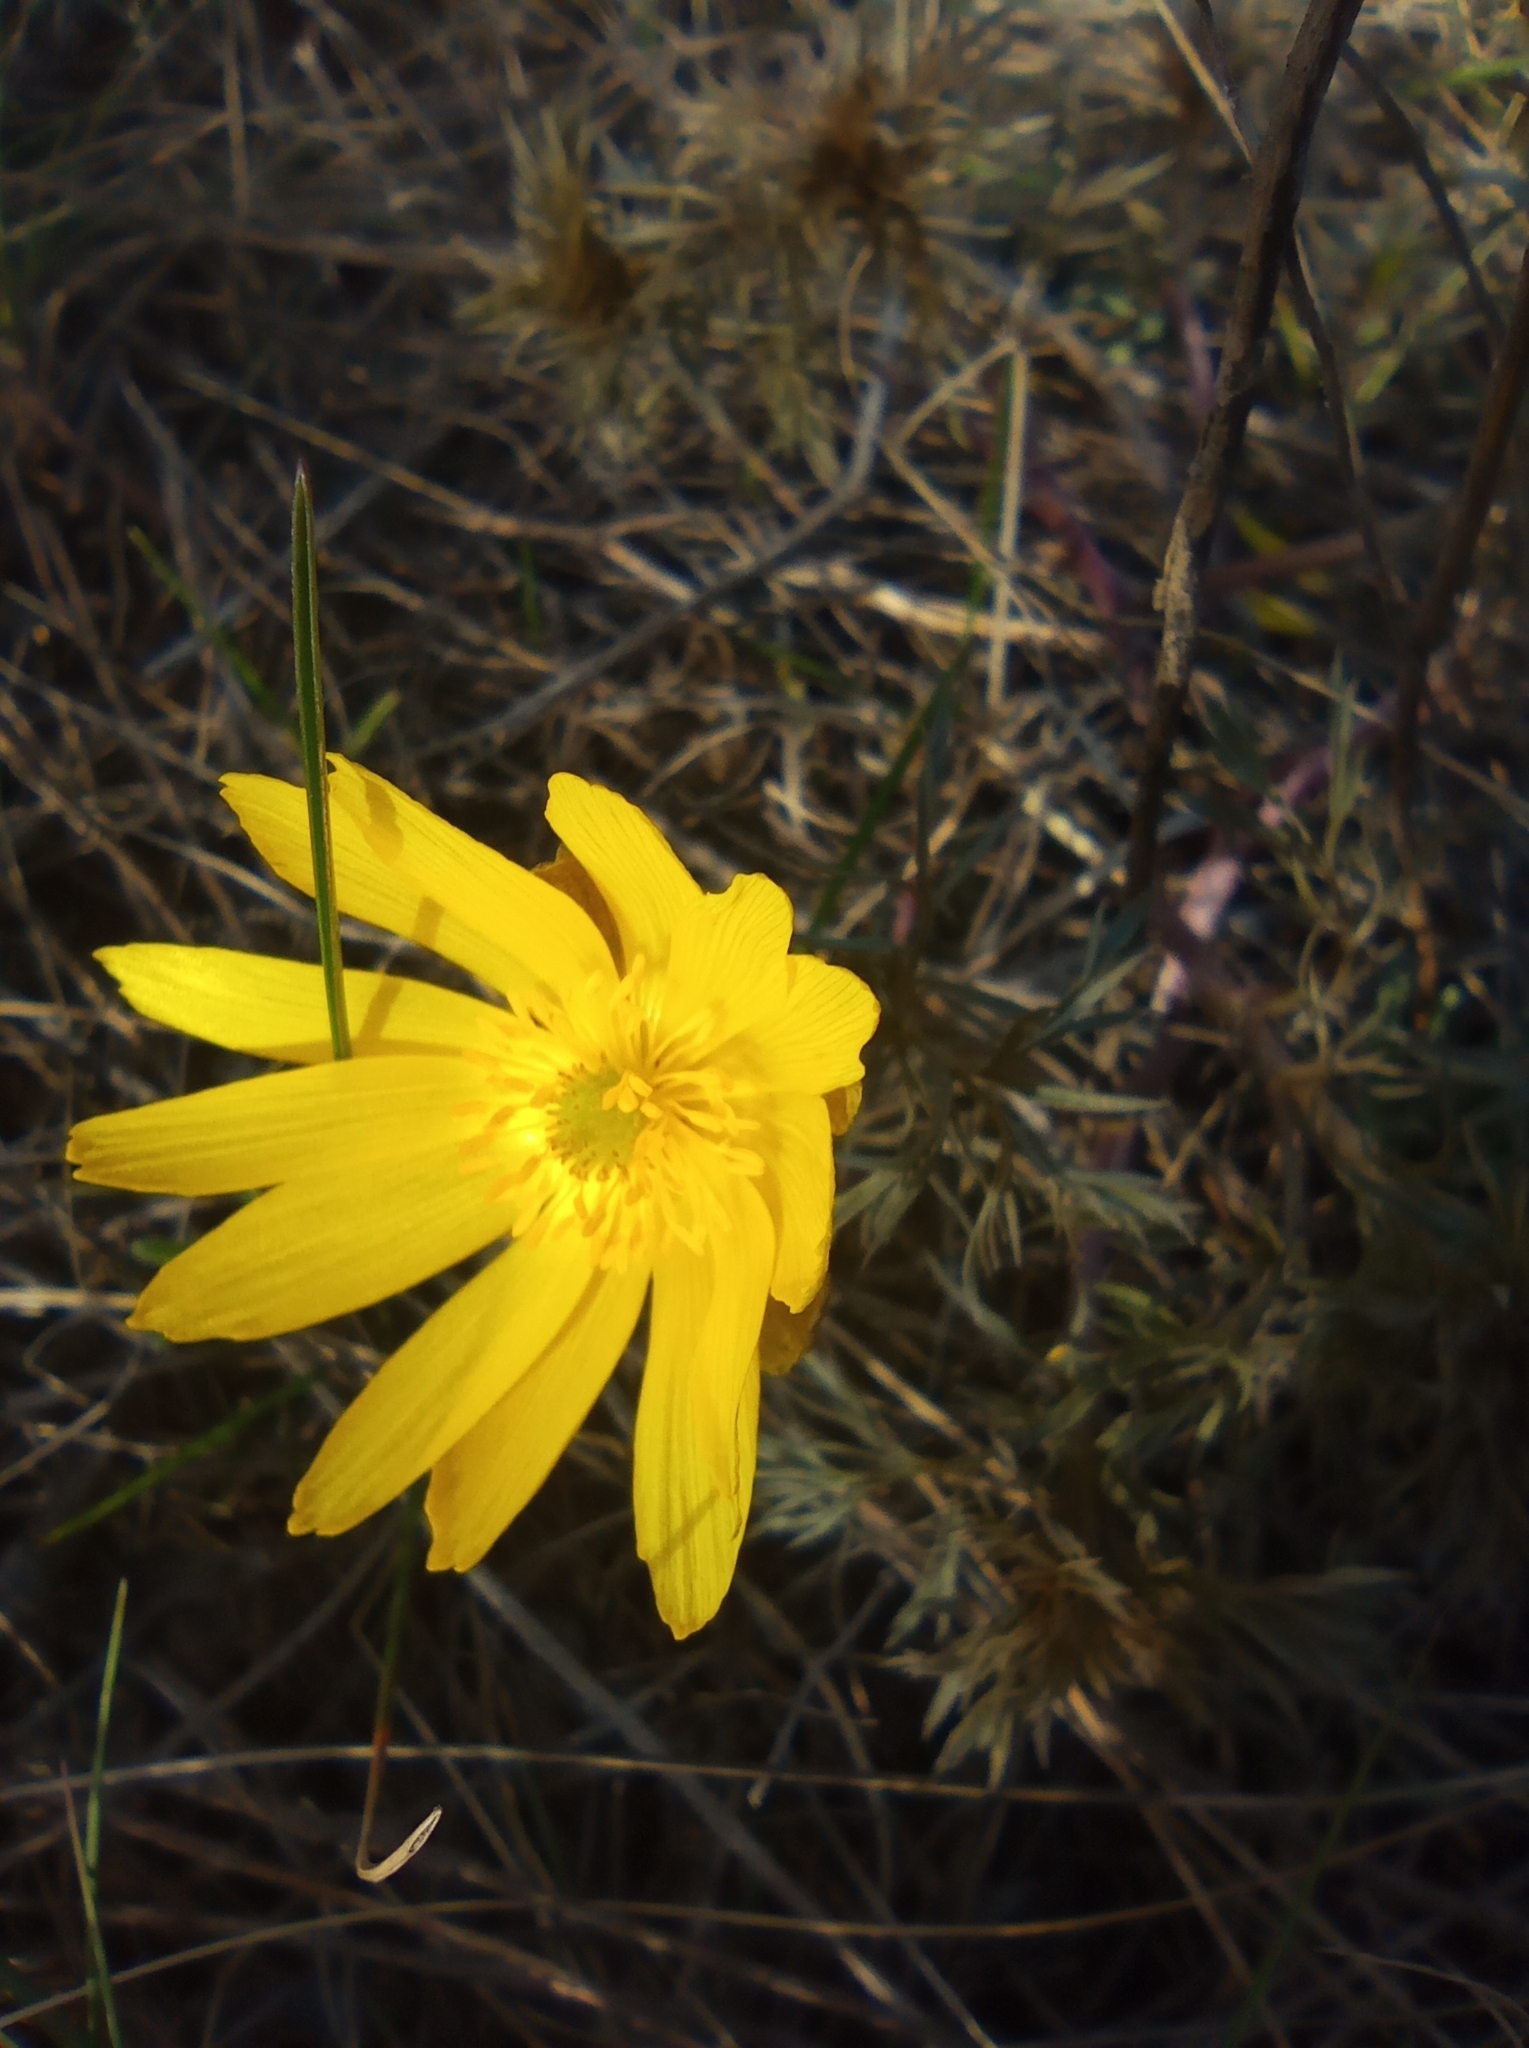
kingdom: Plantae
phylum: Tracheophyta
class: Magnoliopsida
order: Ranunculales
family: Ranunculaceae
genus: Adonis
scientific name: Adonis volgensis
